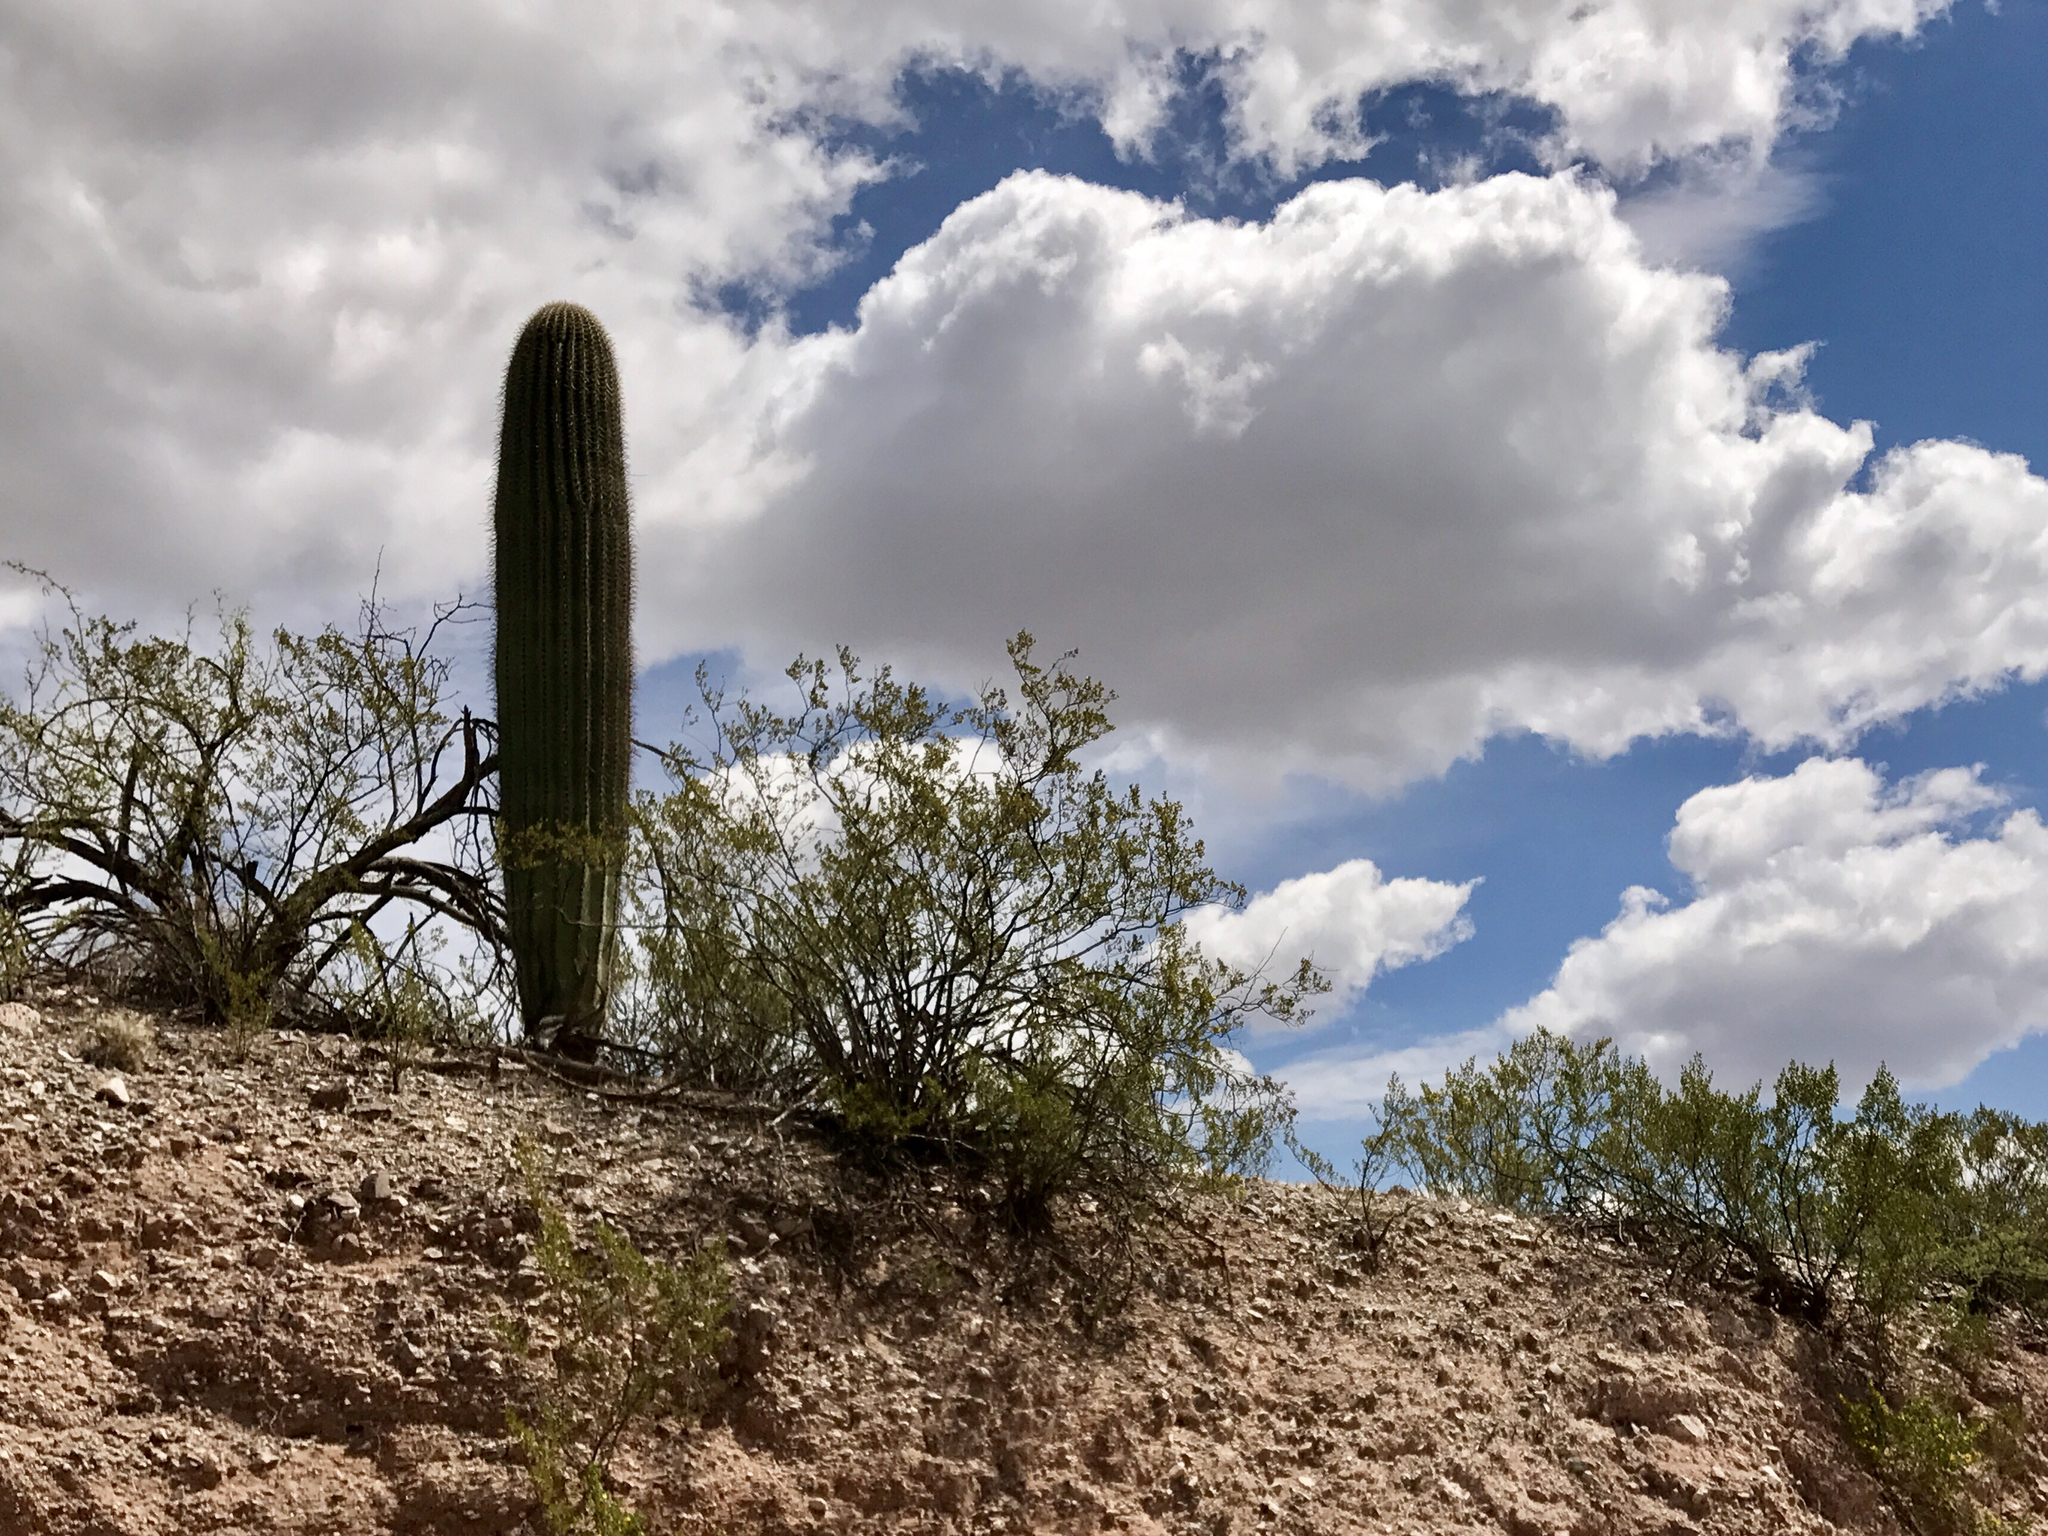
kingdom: Plantae
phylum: Tracheophyta
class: Magnoliopsida
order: Zygophyllales
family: Zygophyllaceae
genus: Larrea
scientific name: Larrea tridentata
